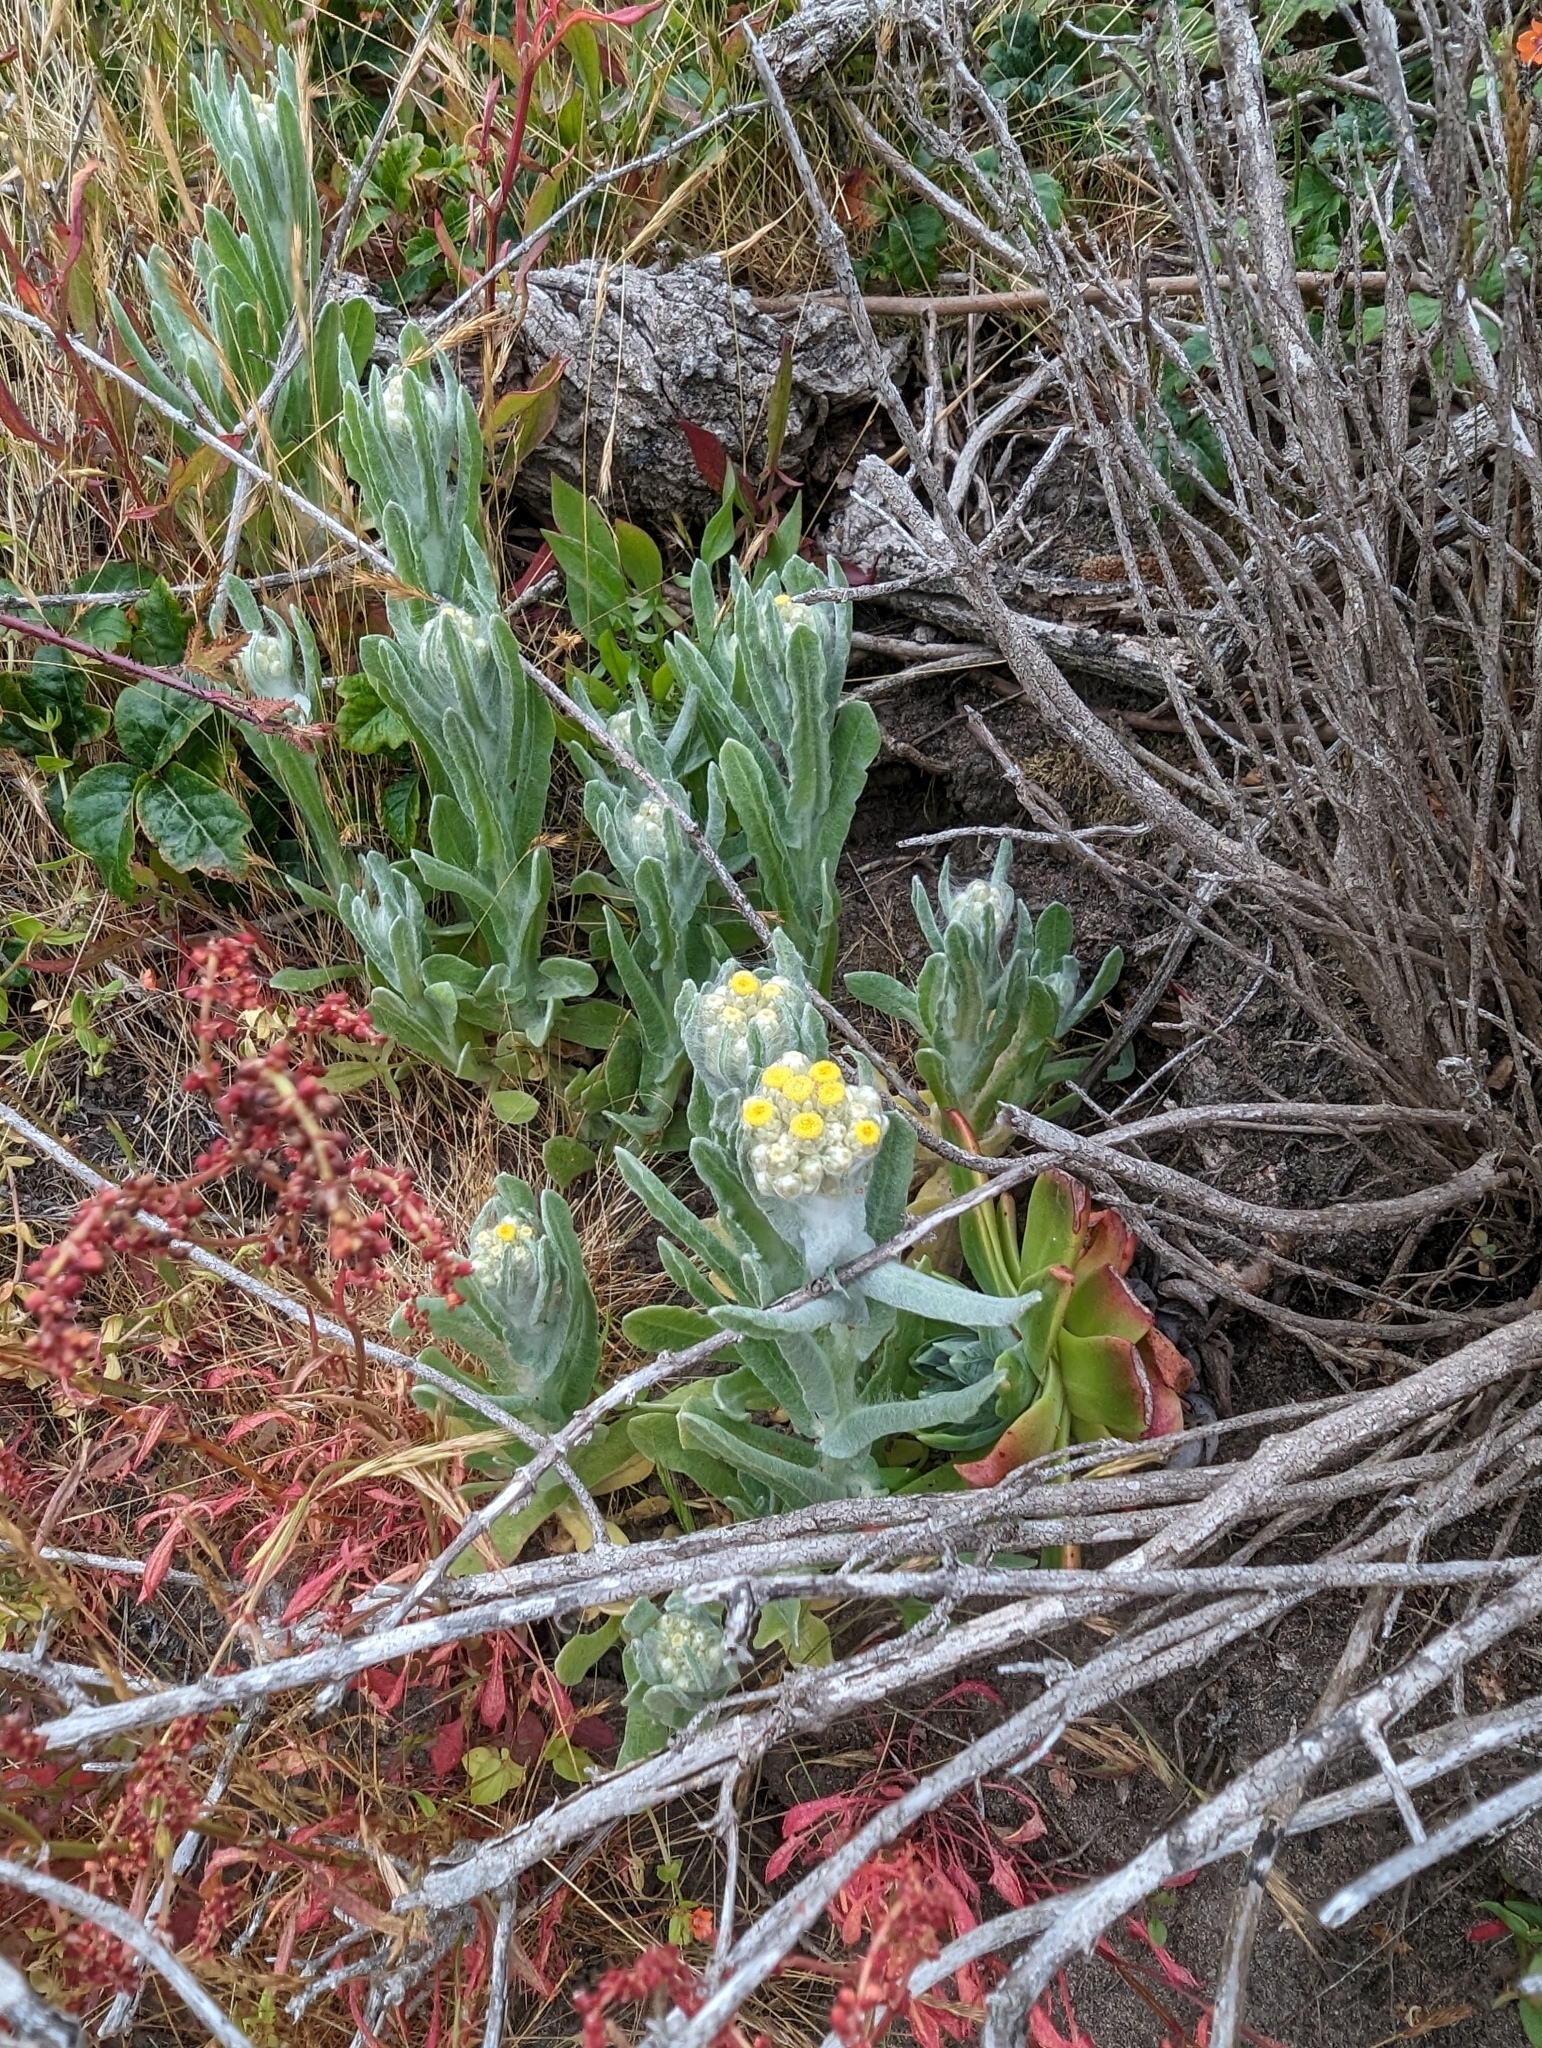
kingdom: Plantae
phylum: Tracheophyta
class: Magnoliopsida
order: Asterales
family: Asteraceae
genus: Pseudognaphalium
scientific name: Pseudognaphalium stramineum
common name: Cotton-batting-plant
